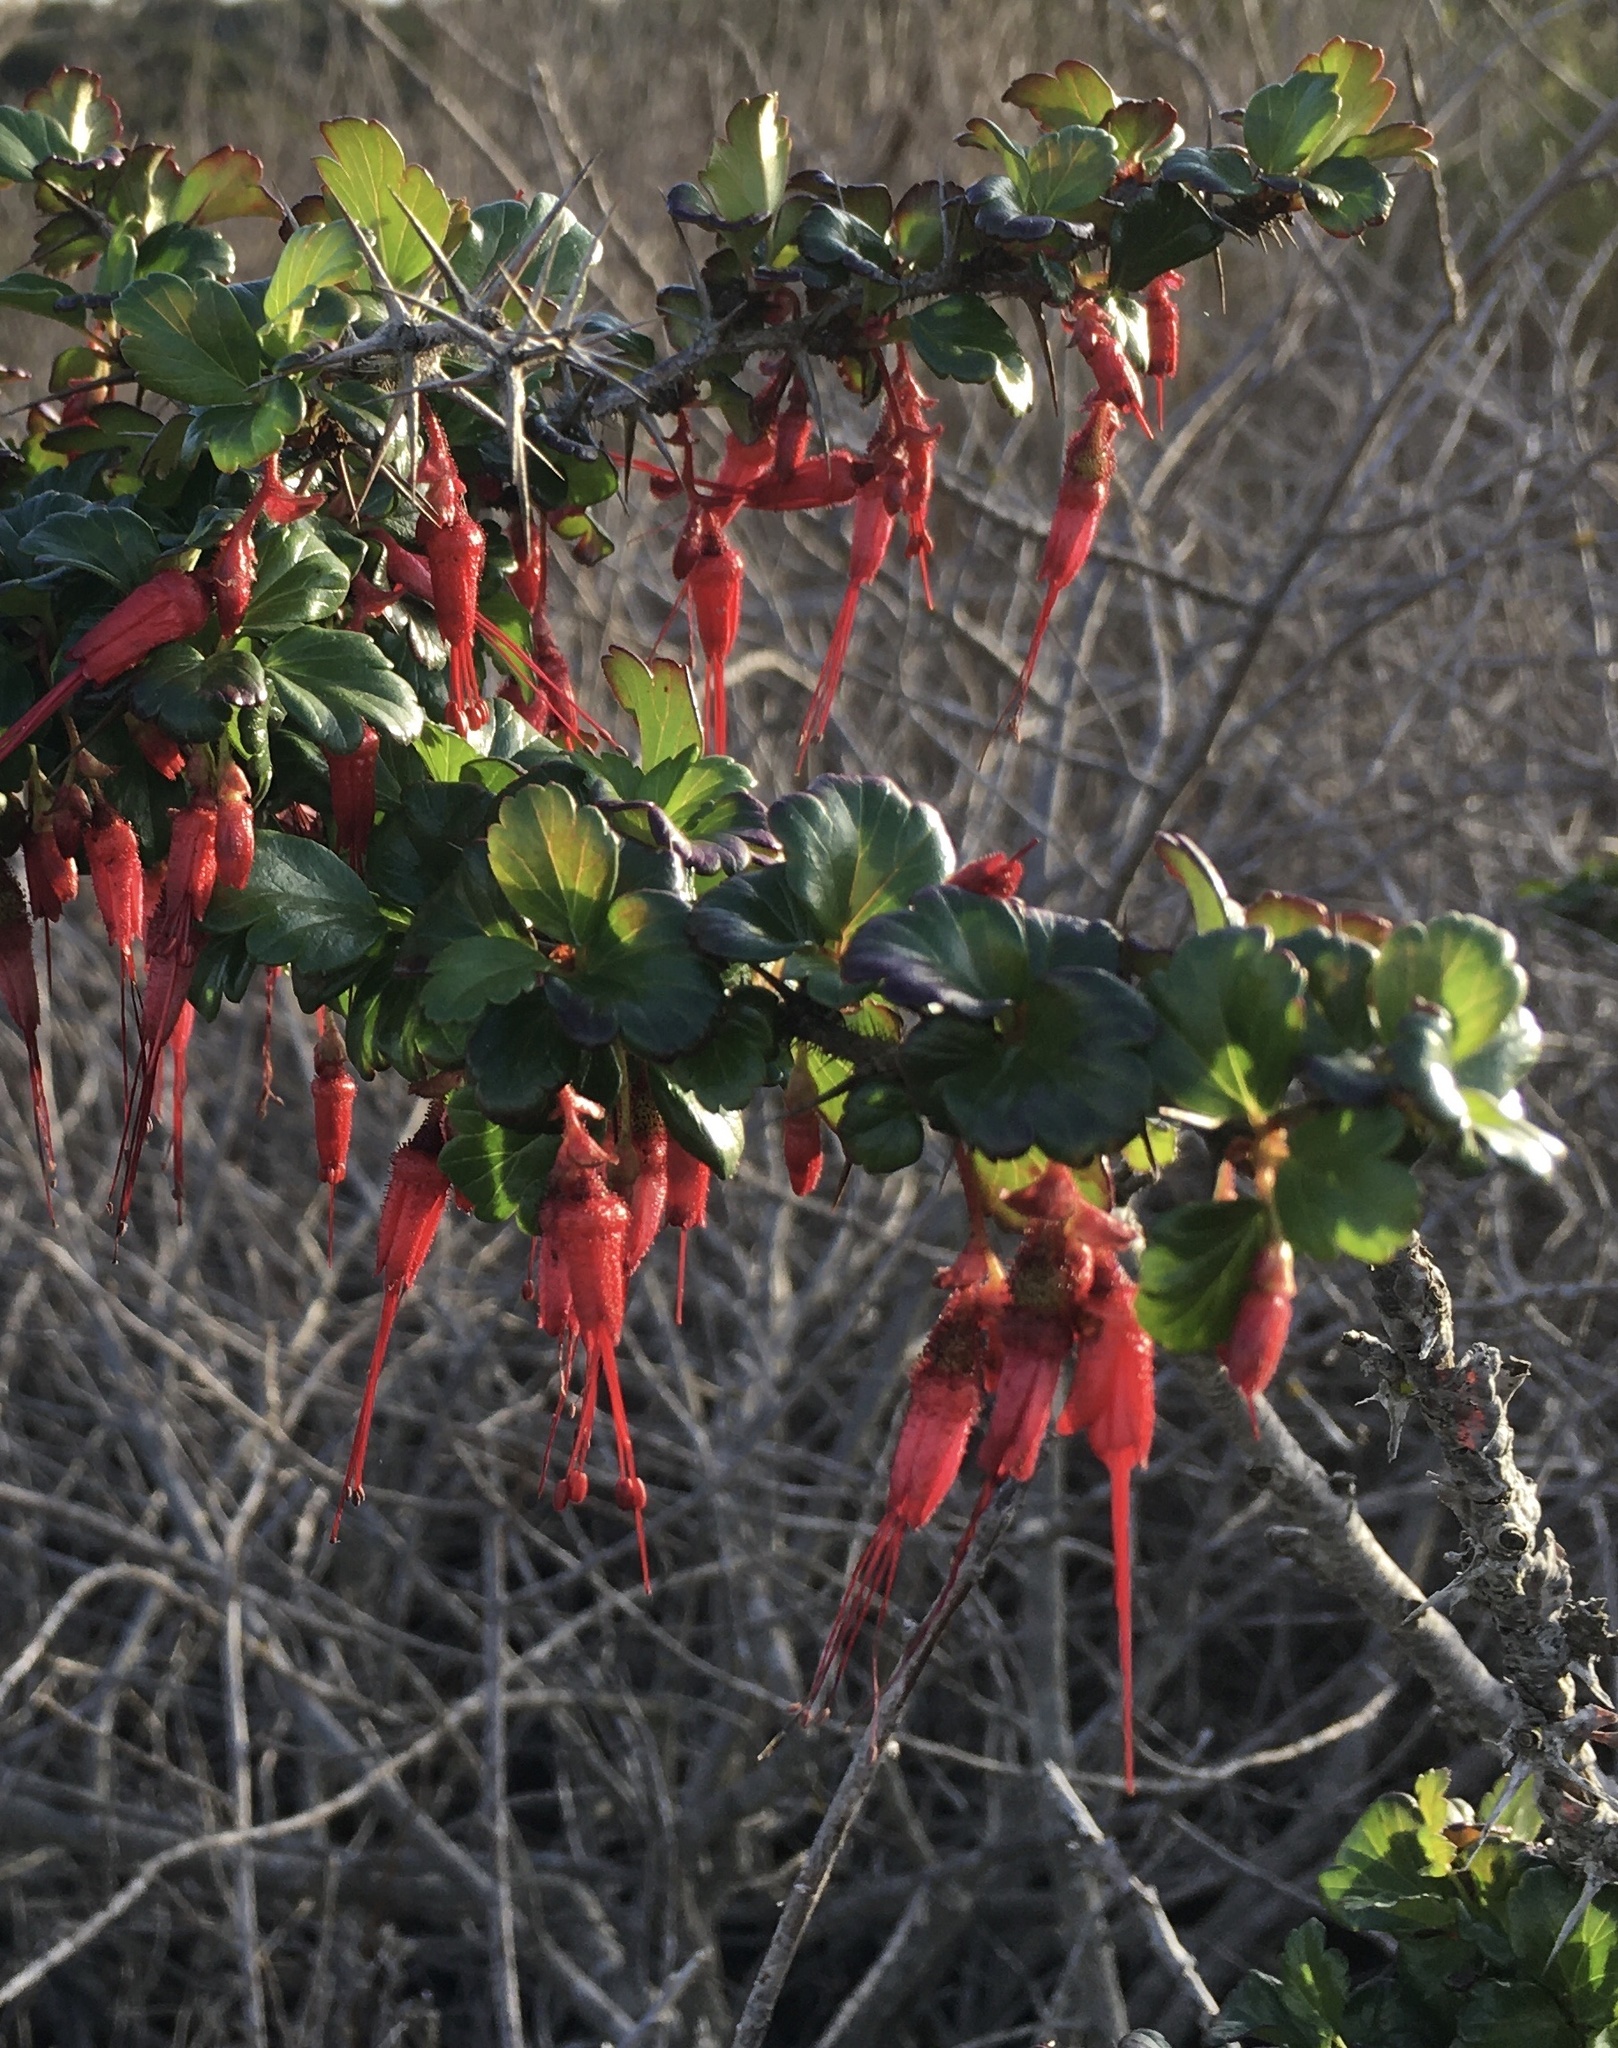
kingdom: Plantae
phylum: Tracheophyta
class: Magnoliopsida
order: Saxifragales
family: Grossulariaceae
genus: Ribes
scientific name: Ribes speciosum
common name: Fuchsia-flower gooseberry
